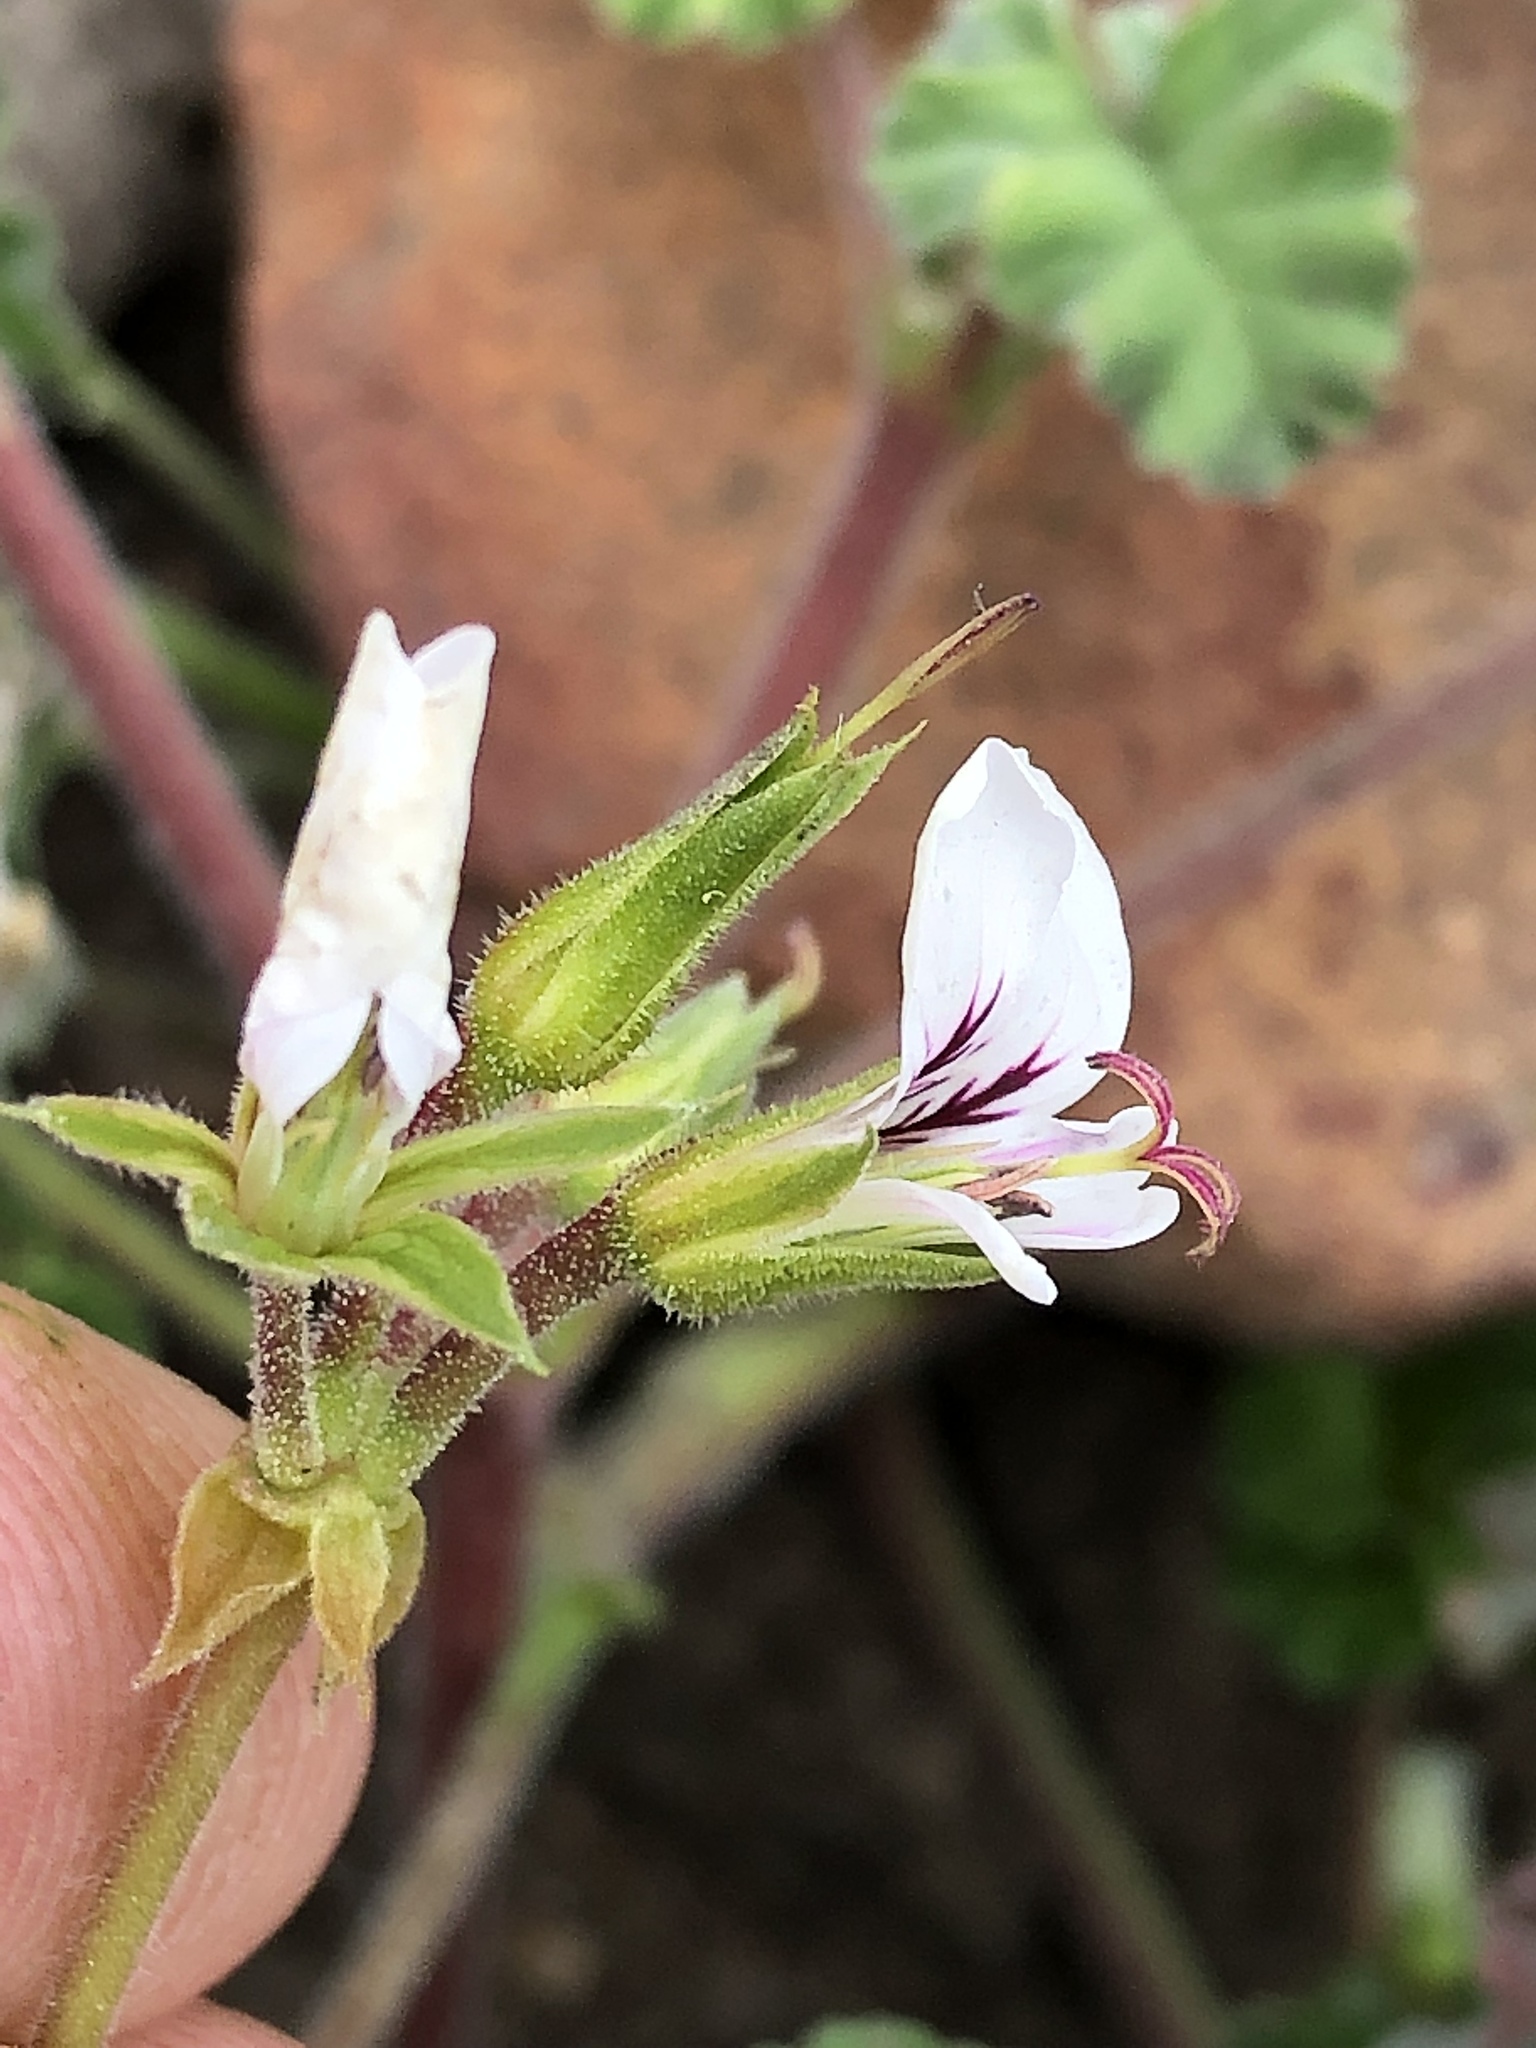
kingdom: Plantae
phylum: Tracheophyta
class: Magnoliopsida
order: Geraniales
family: Geraniaceae
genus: Pelargonium
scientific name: Pelargonium candicans
